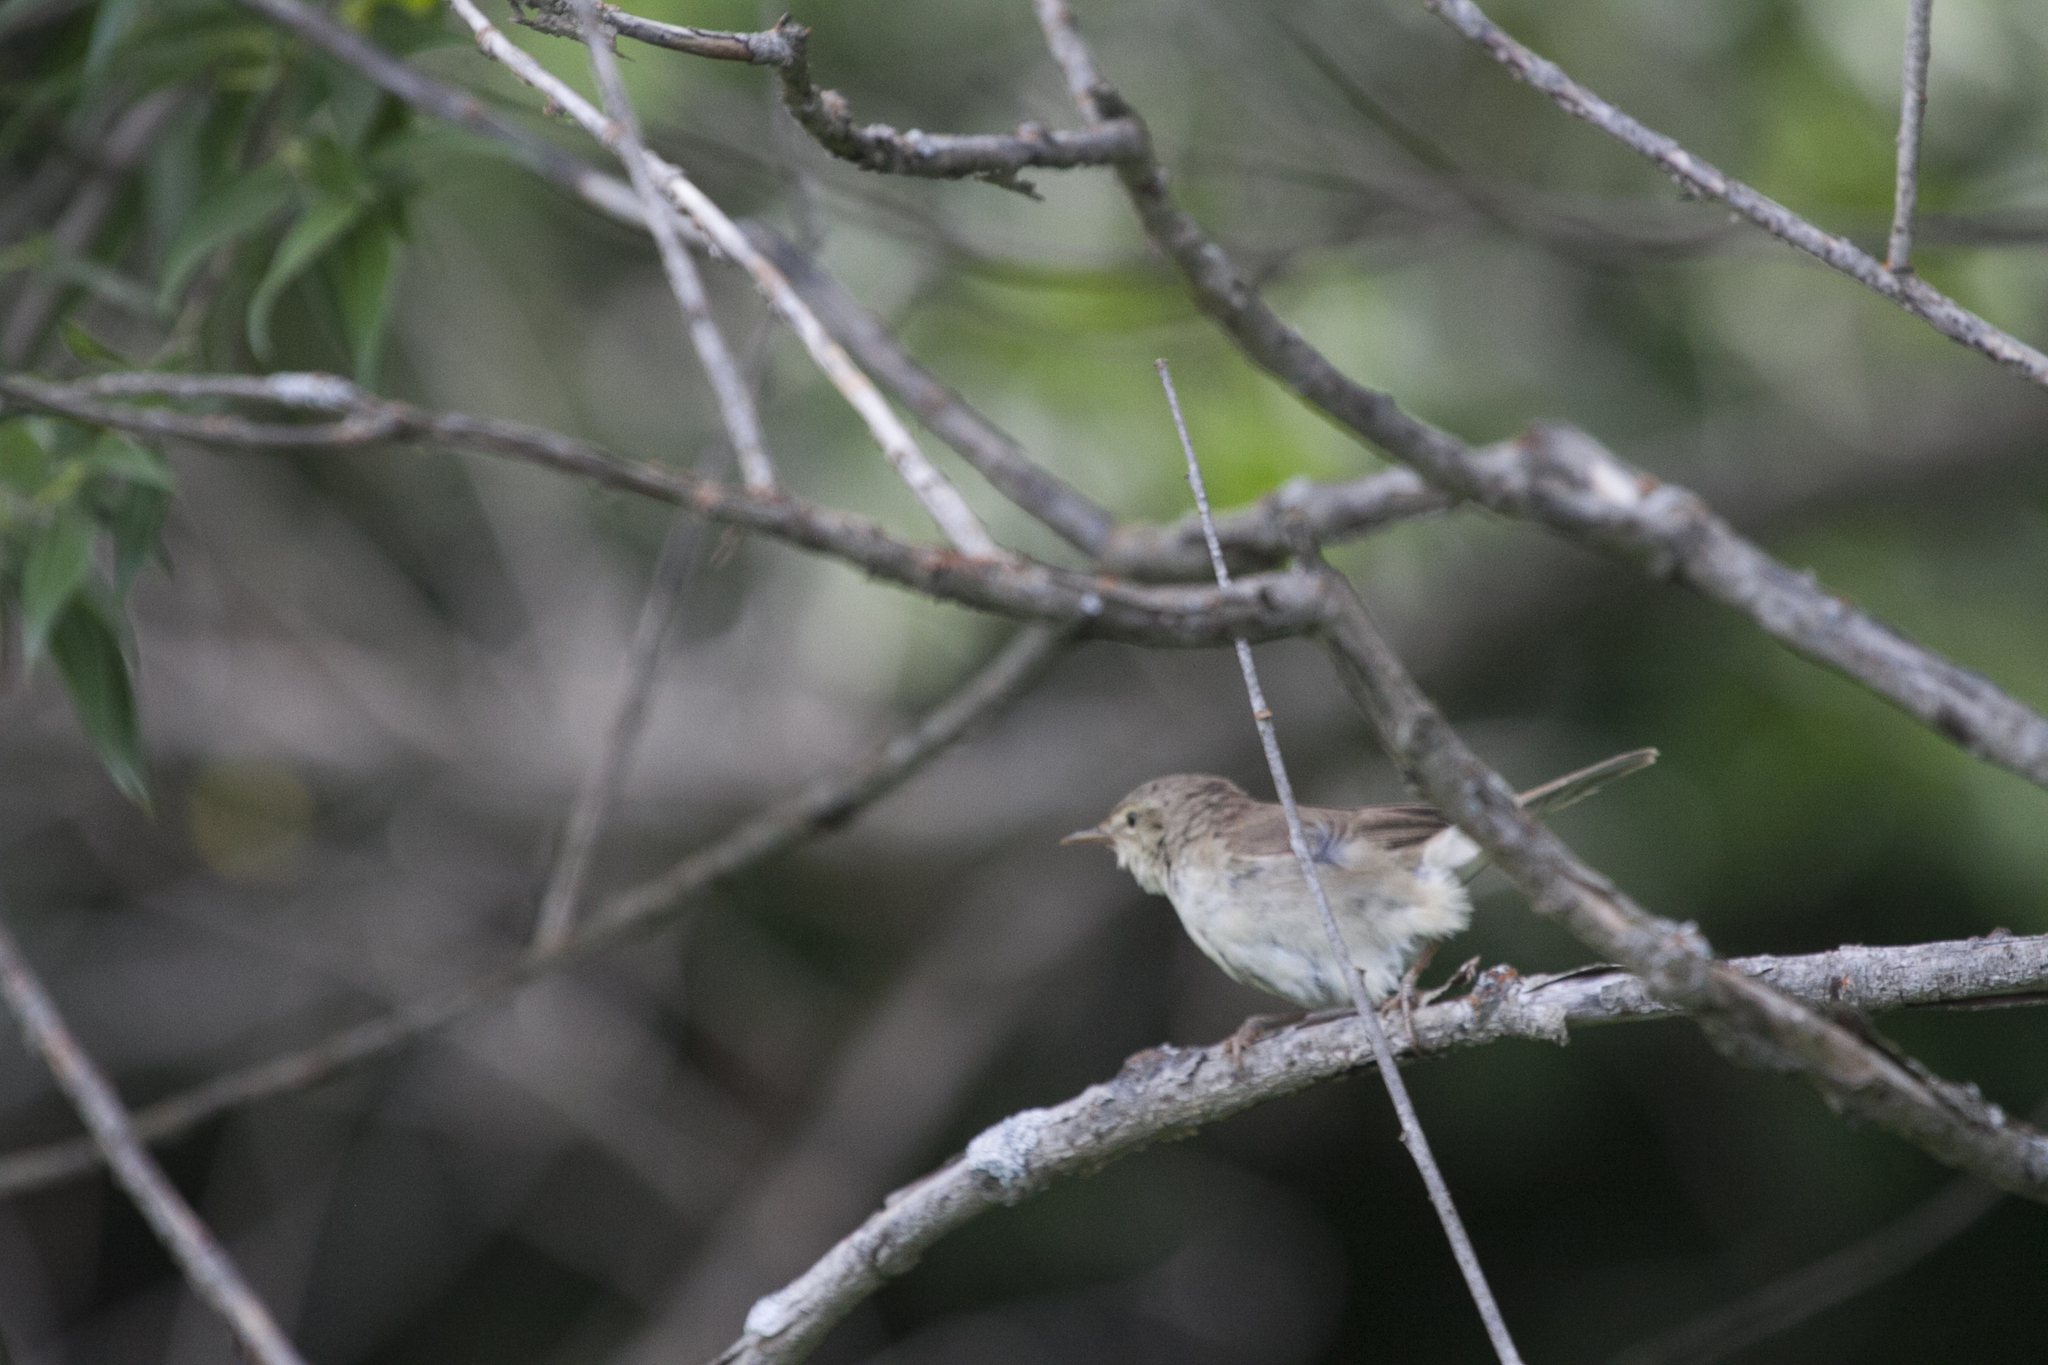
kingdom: Animalia
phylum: Chordata
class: Aves
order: Passeriformes
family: Acrocephalidae
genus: Acrocephalus
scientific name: Acrocephalus dumetorum
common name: Blyth's reed warbler
